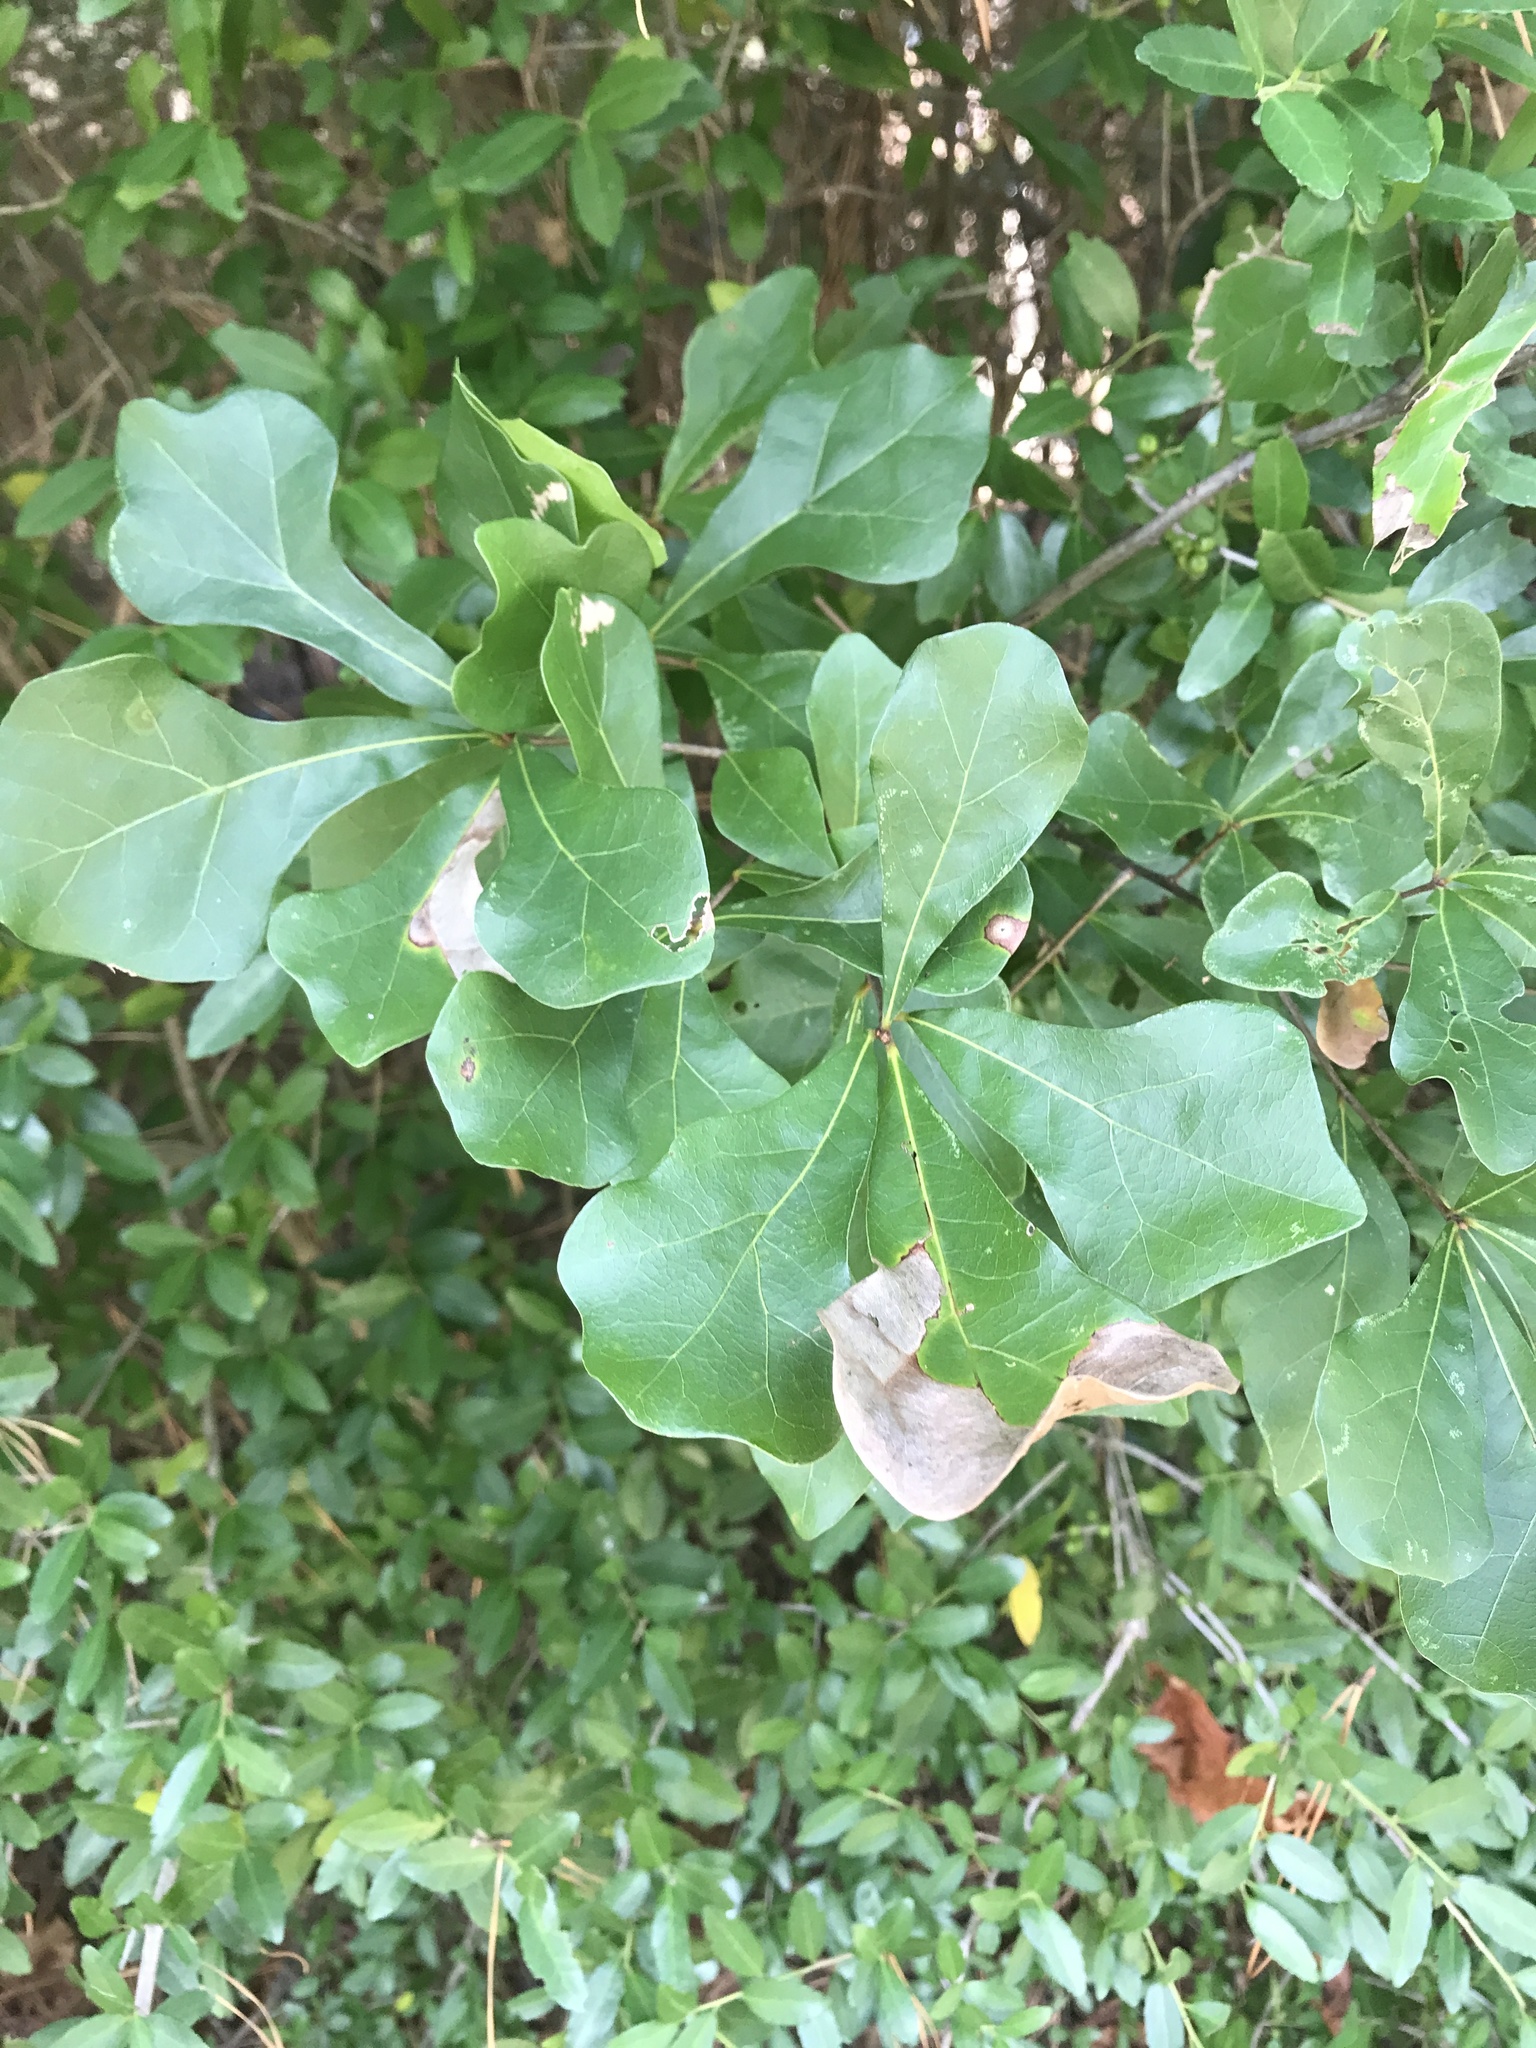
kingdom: Plantae
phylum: Tracheophyta
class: Magnoliopsida
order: Fagales
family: Fagaceae
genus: Quercus
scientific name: Quercus nigra
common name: Water oak
